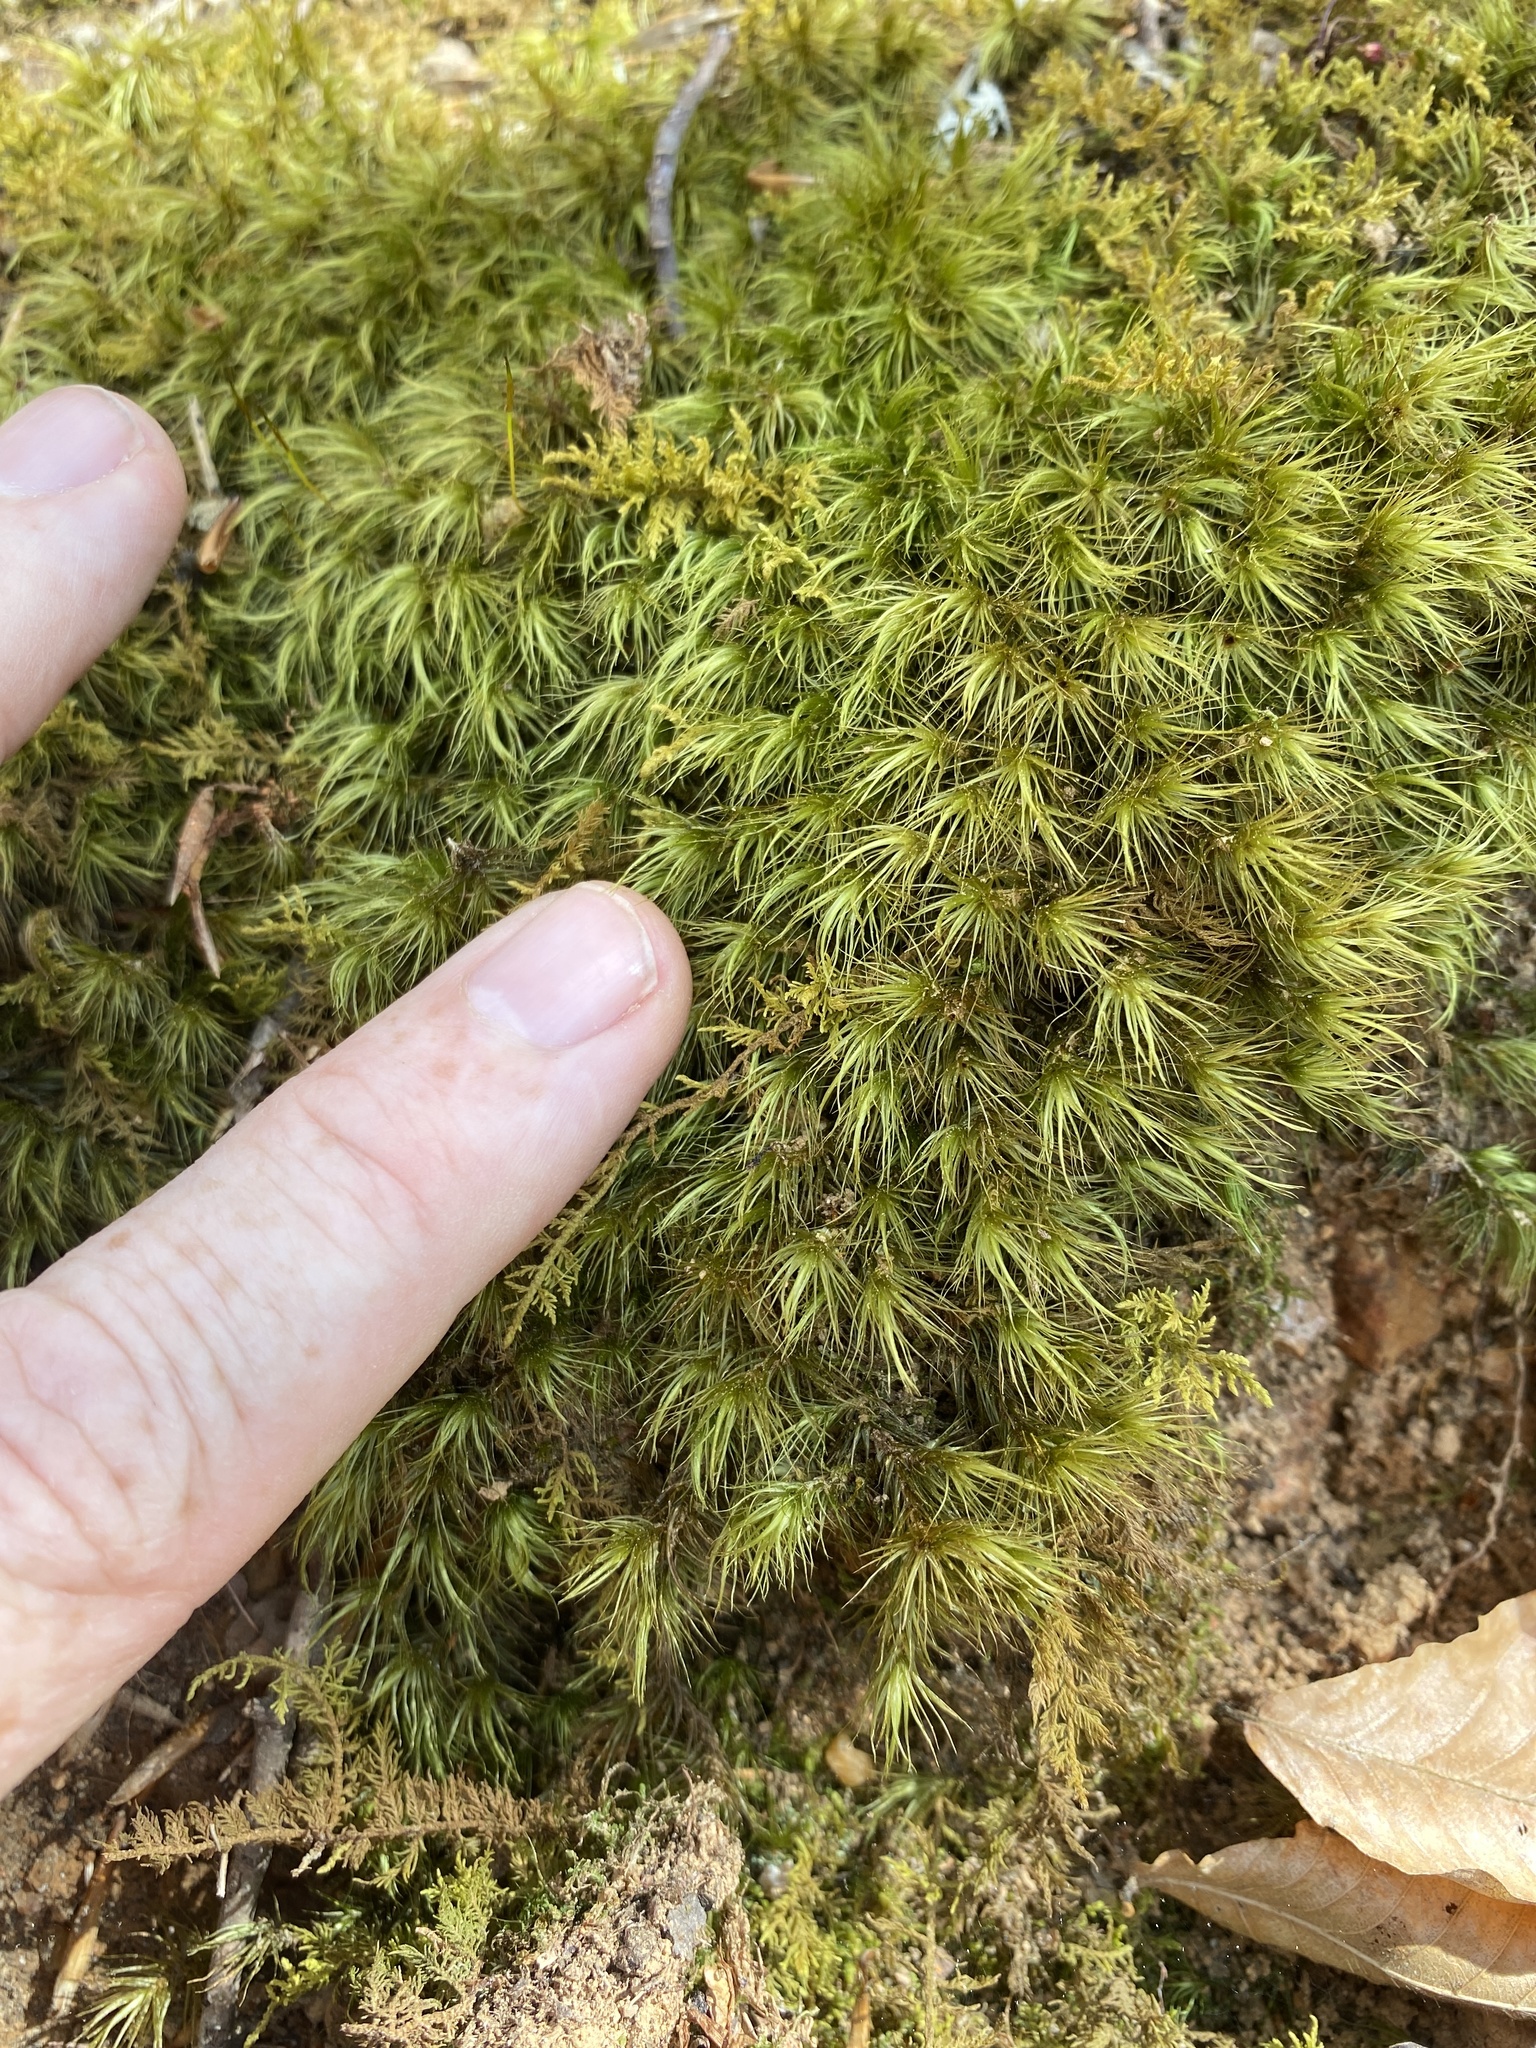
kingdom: Plantae
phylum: Bryophyta
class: Bryopsida
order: Dicranales
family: Dicranaceae
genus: Dicranum
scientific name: Dicranum scoparium
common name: Broom fork-moss
